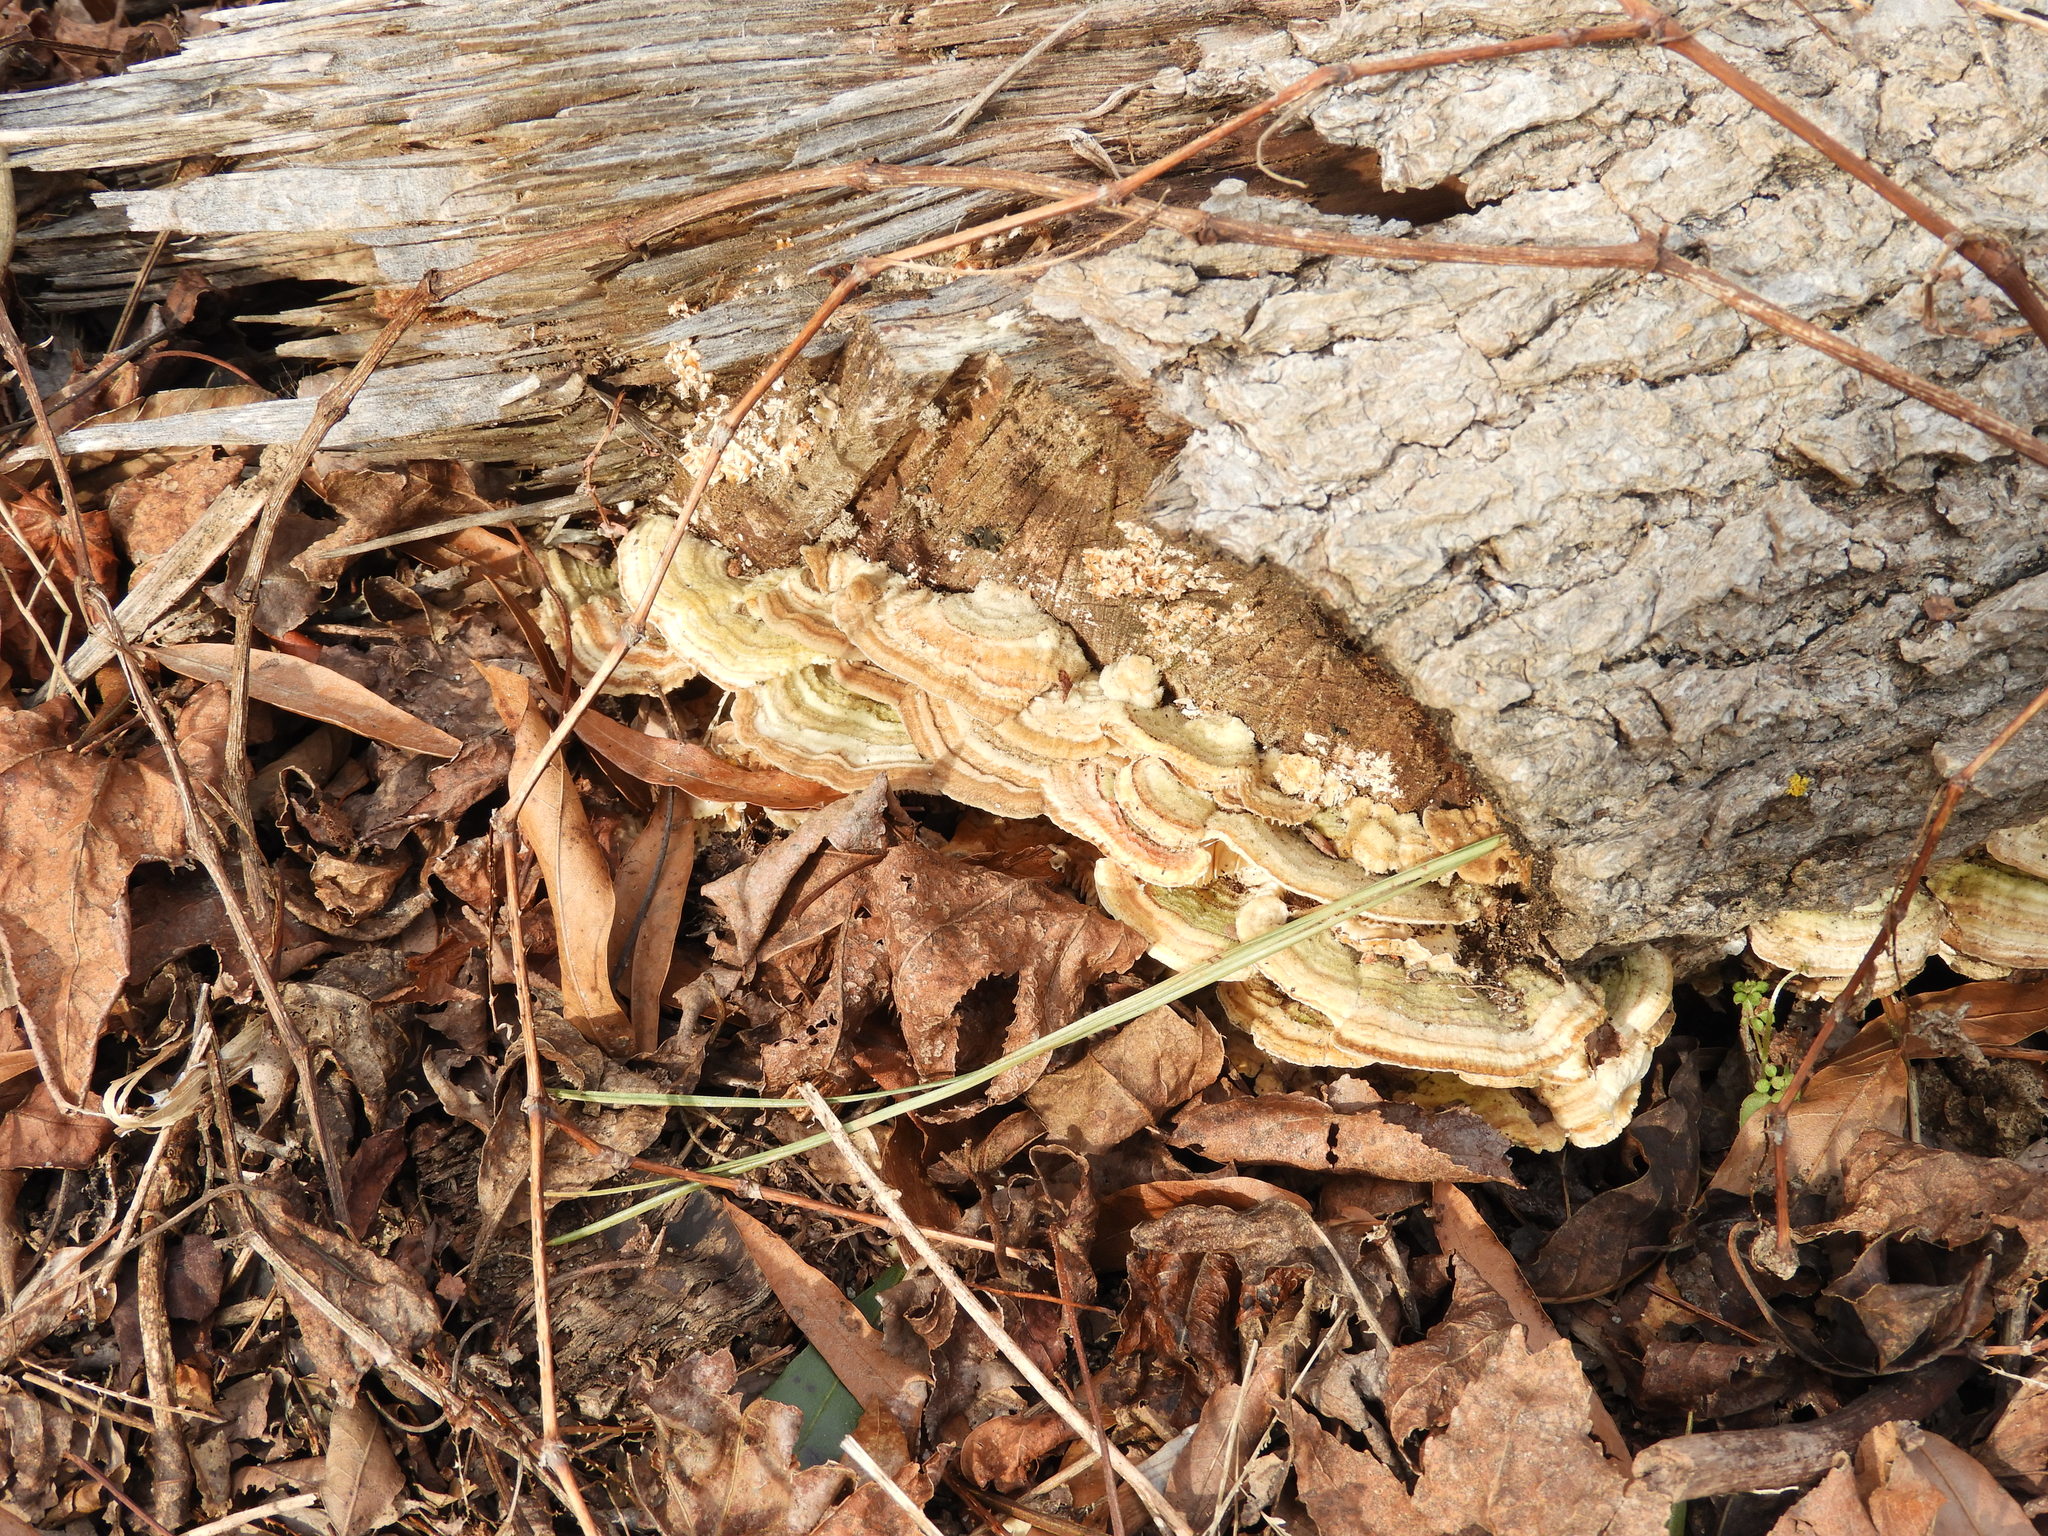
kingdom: Fungi
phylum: Basidiomycota
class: Agaricomycetes
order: Polyporales
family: Polyporaceae
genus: Lenzites
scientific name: Lenzites betulinus
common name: Birch mazegill
